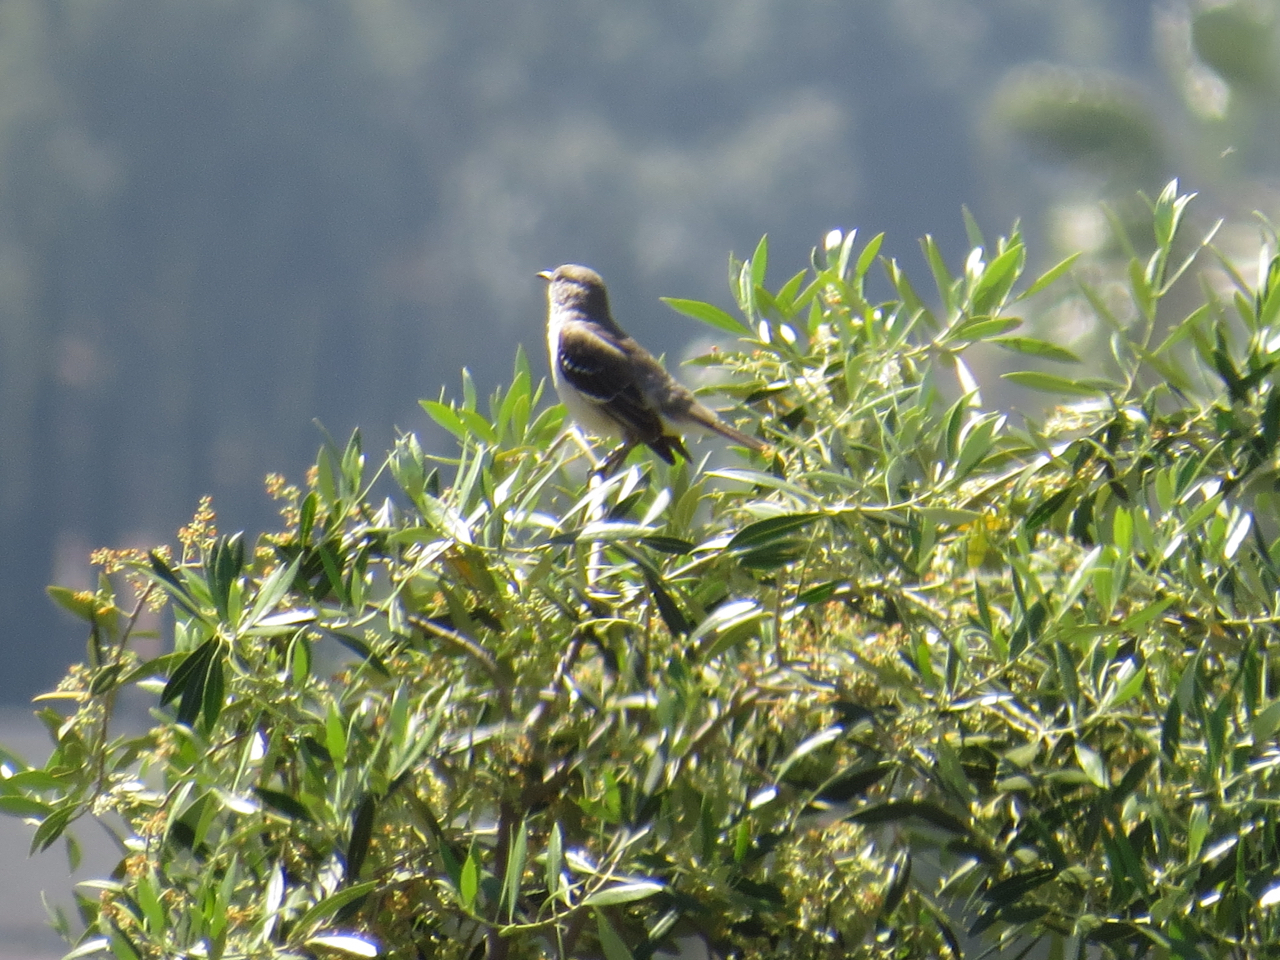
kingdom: Animalia
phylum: Chordata
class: Aves
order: Passeriformes
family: Mimidae
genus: Mimus
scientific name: Mimus polyglottos
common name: Northern mockingbird
